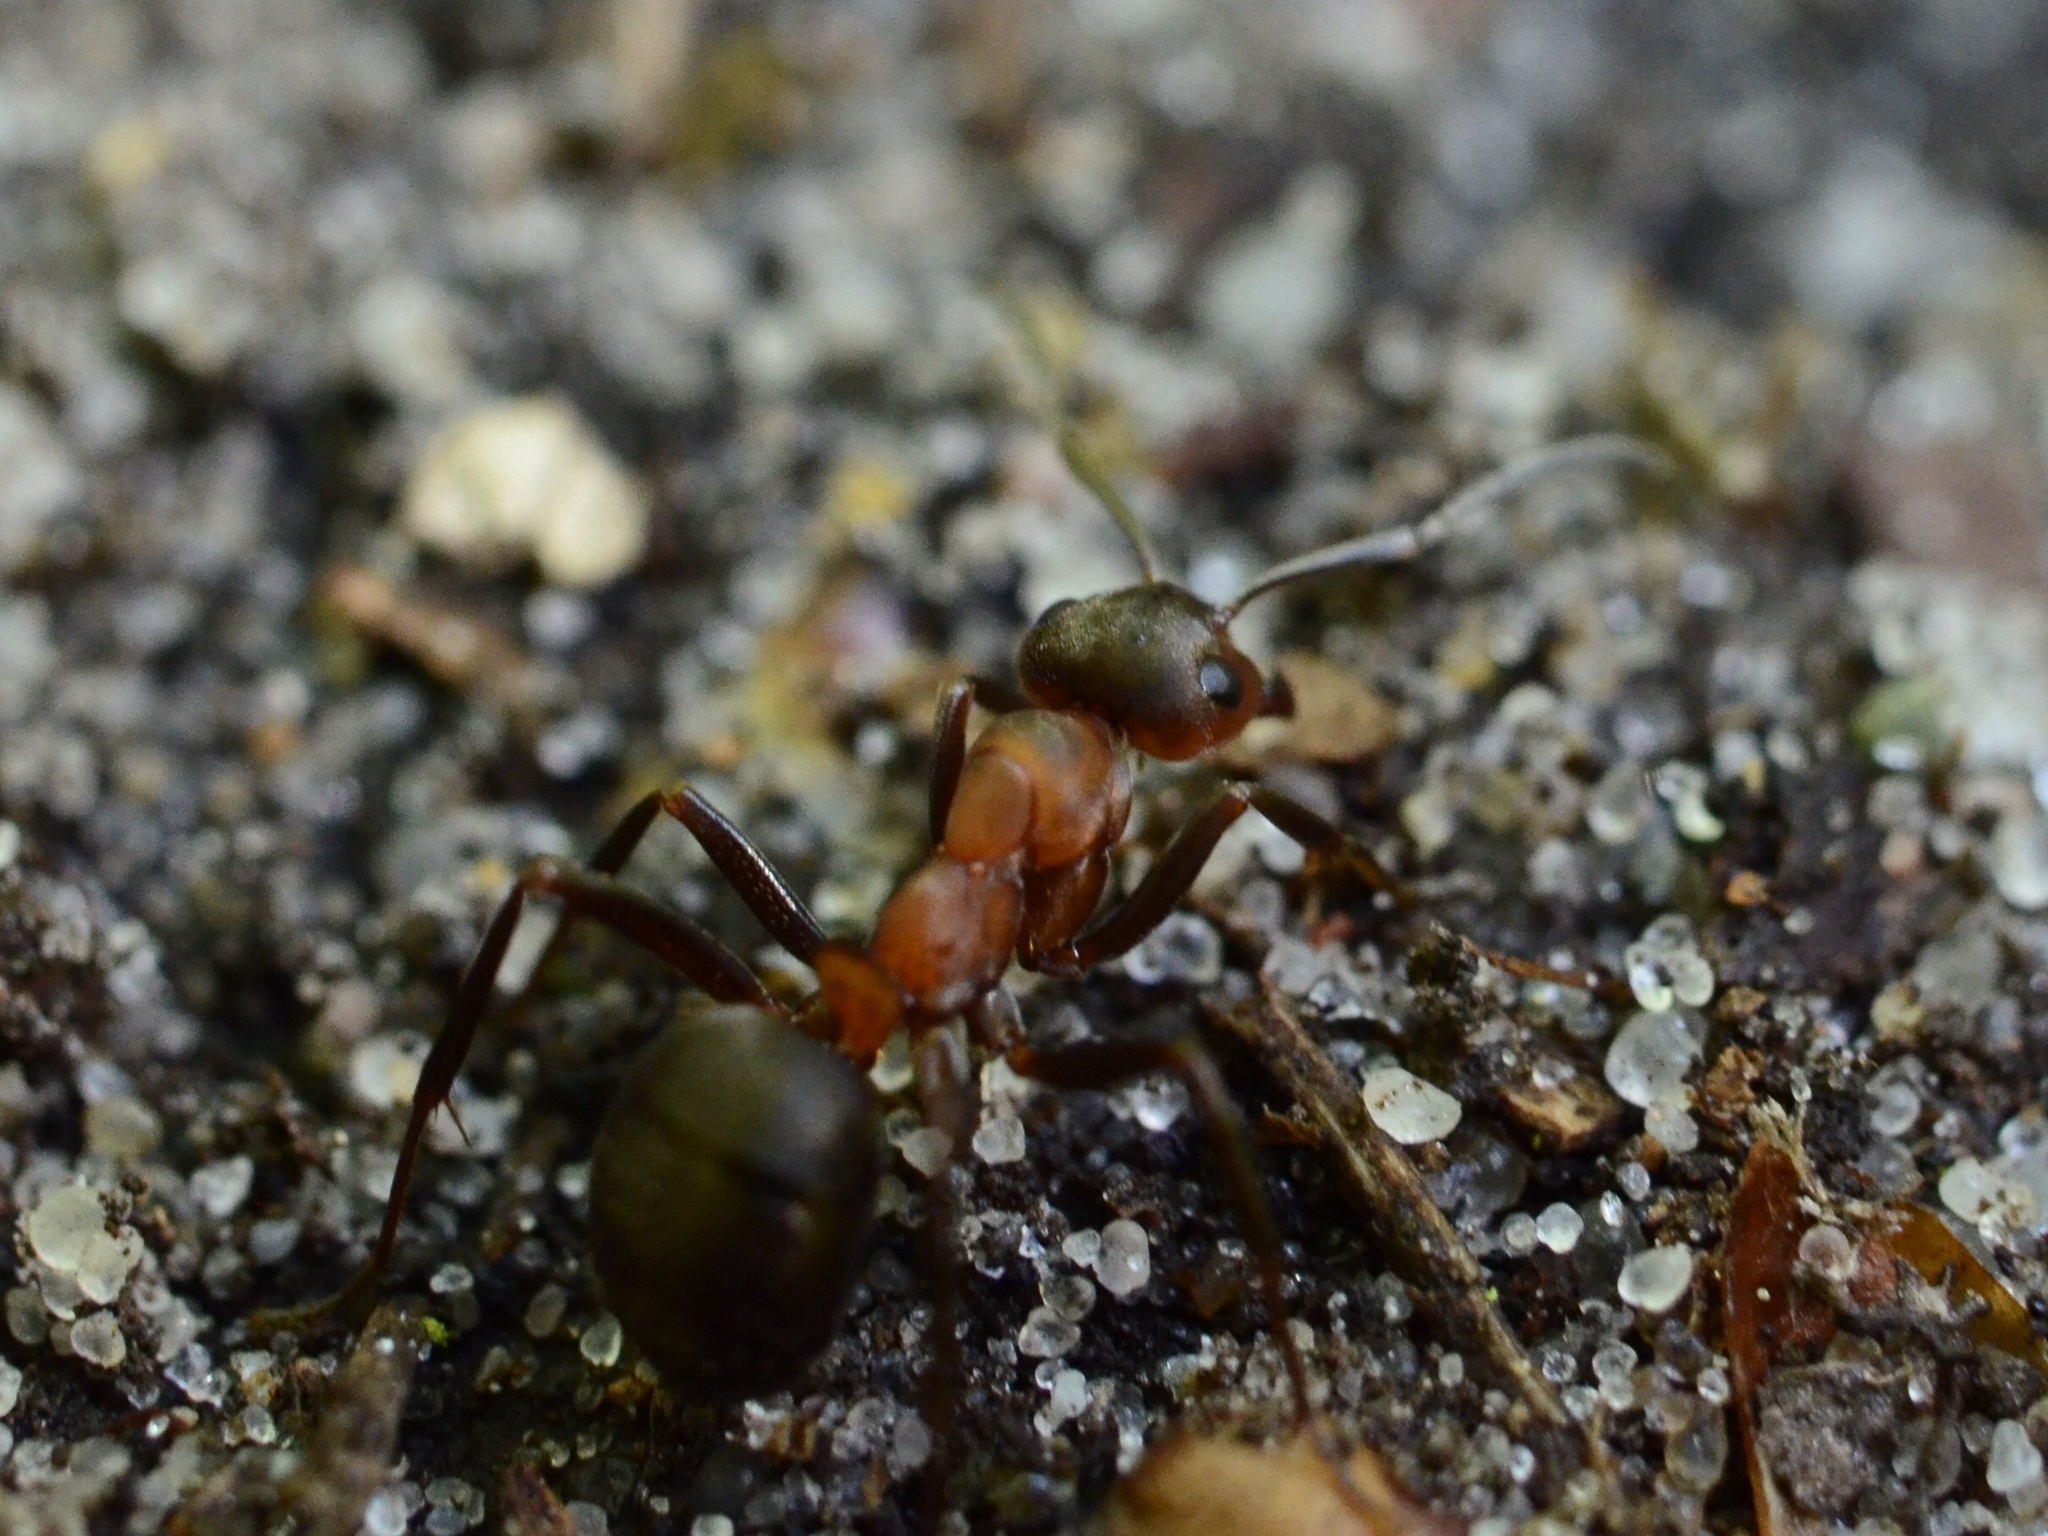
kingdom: Animalia
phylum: Arthropoda
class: Insecta
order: Hymenoptera
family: Formicidae
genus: Formica
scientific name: Formica
